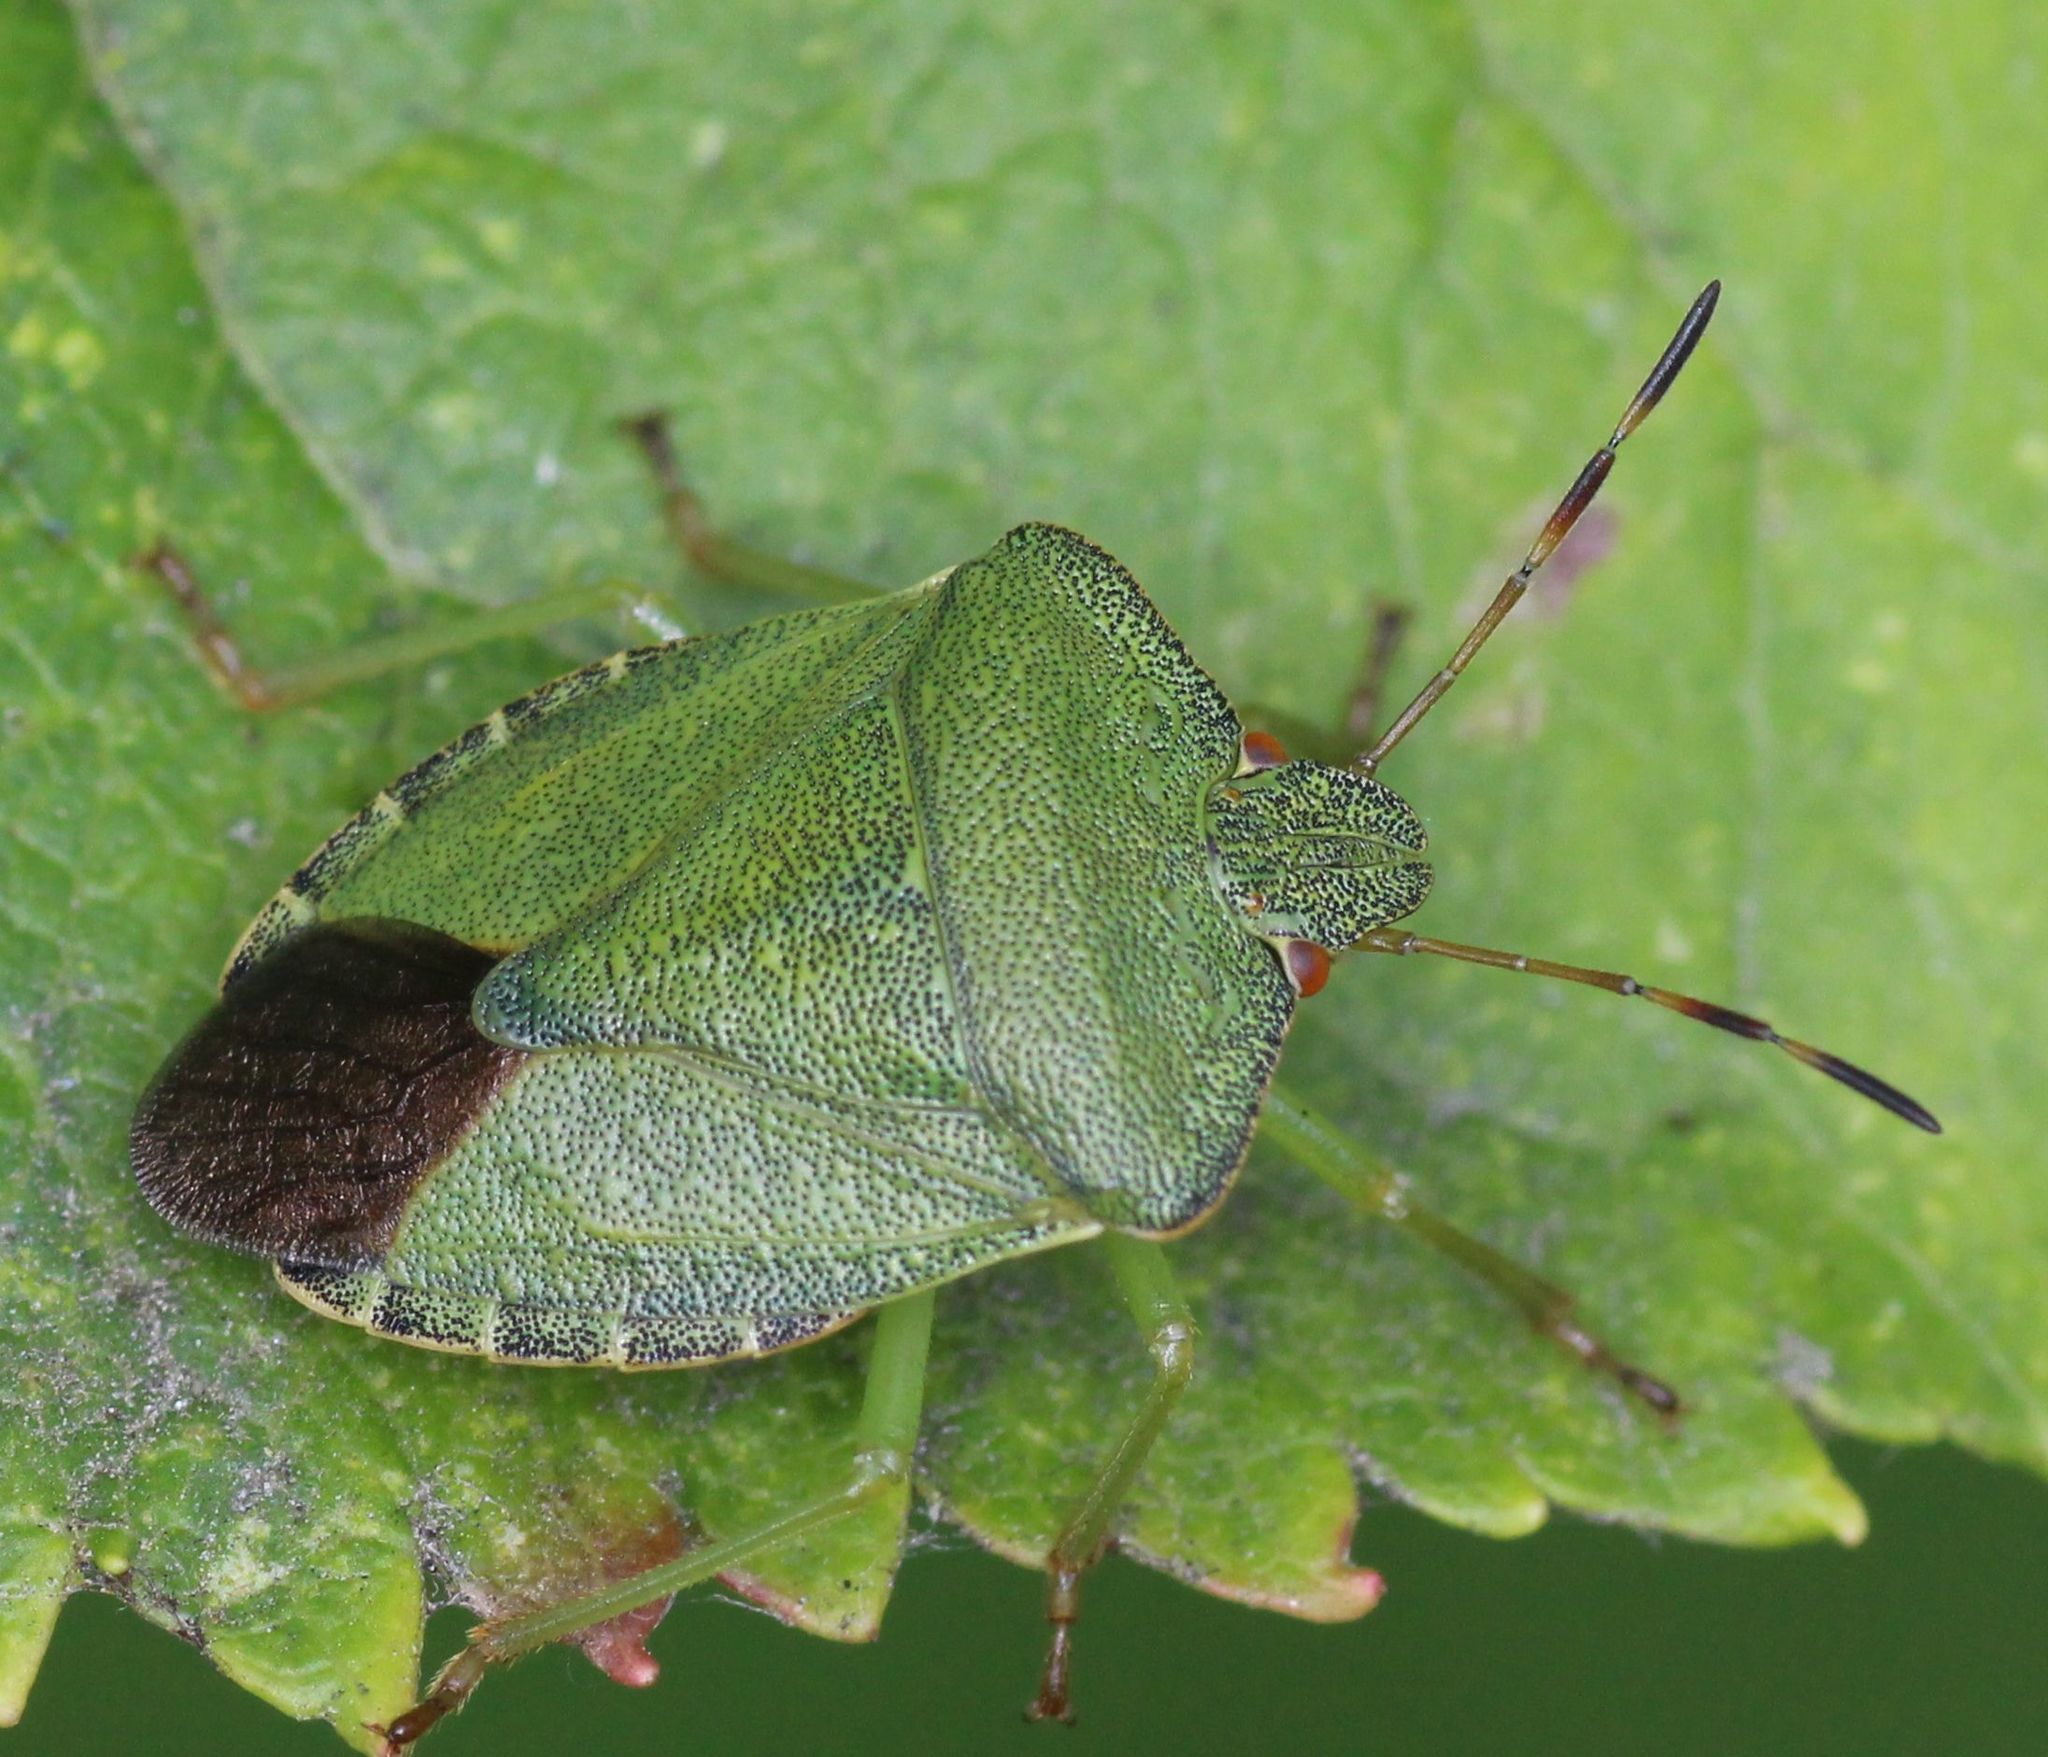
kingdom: Animalia
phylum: Arthropoda
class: Insecta
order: Hemiptera
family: Pentatomidae
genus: Palomena
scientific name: Palomena prasina
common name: Green shieldbug
